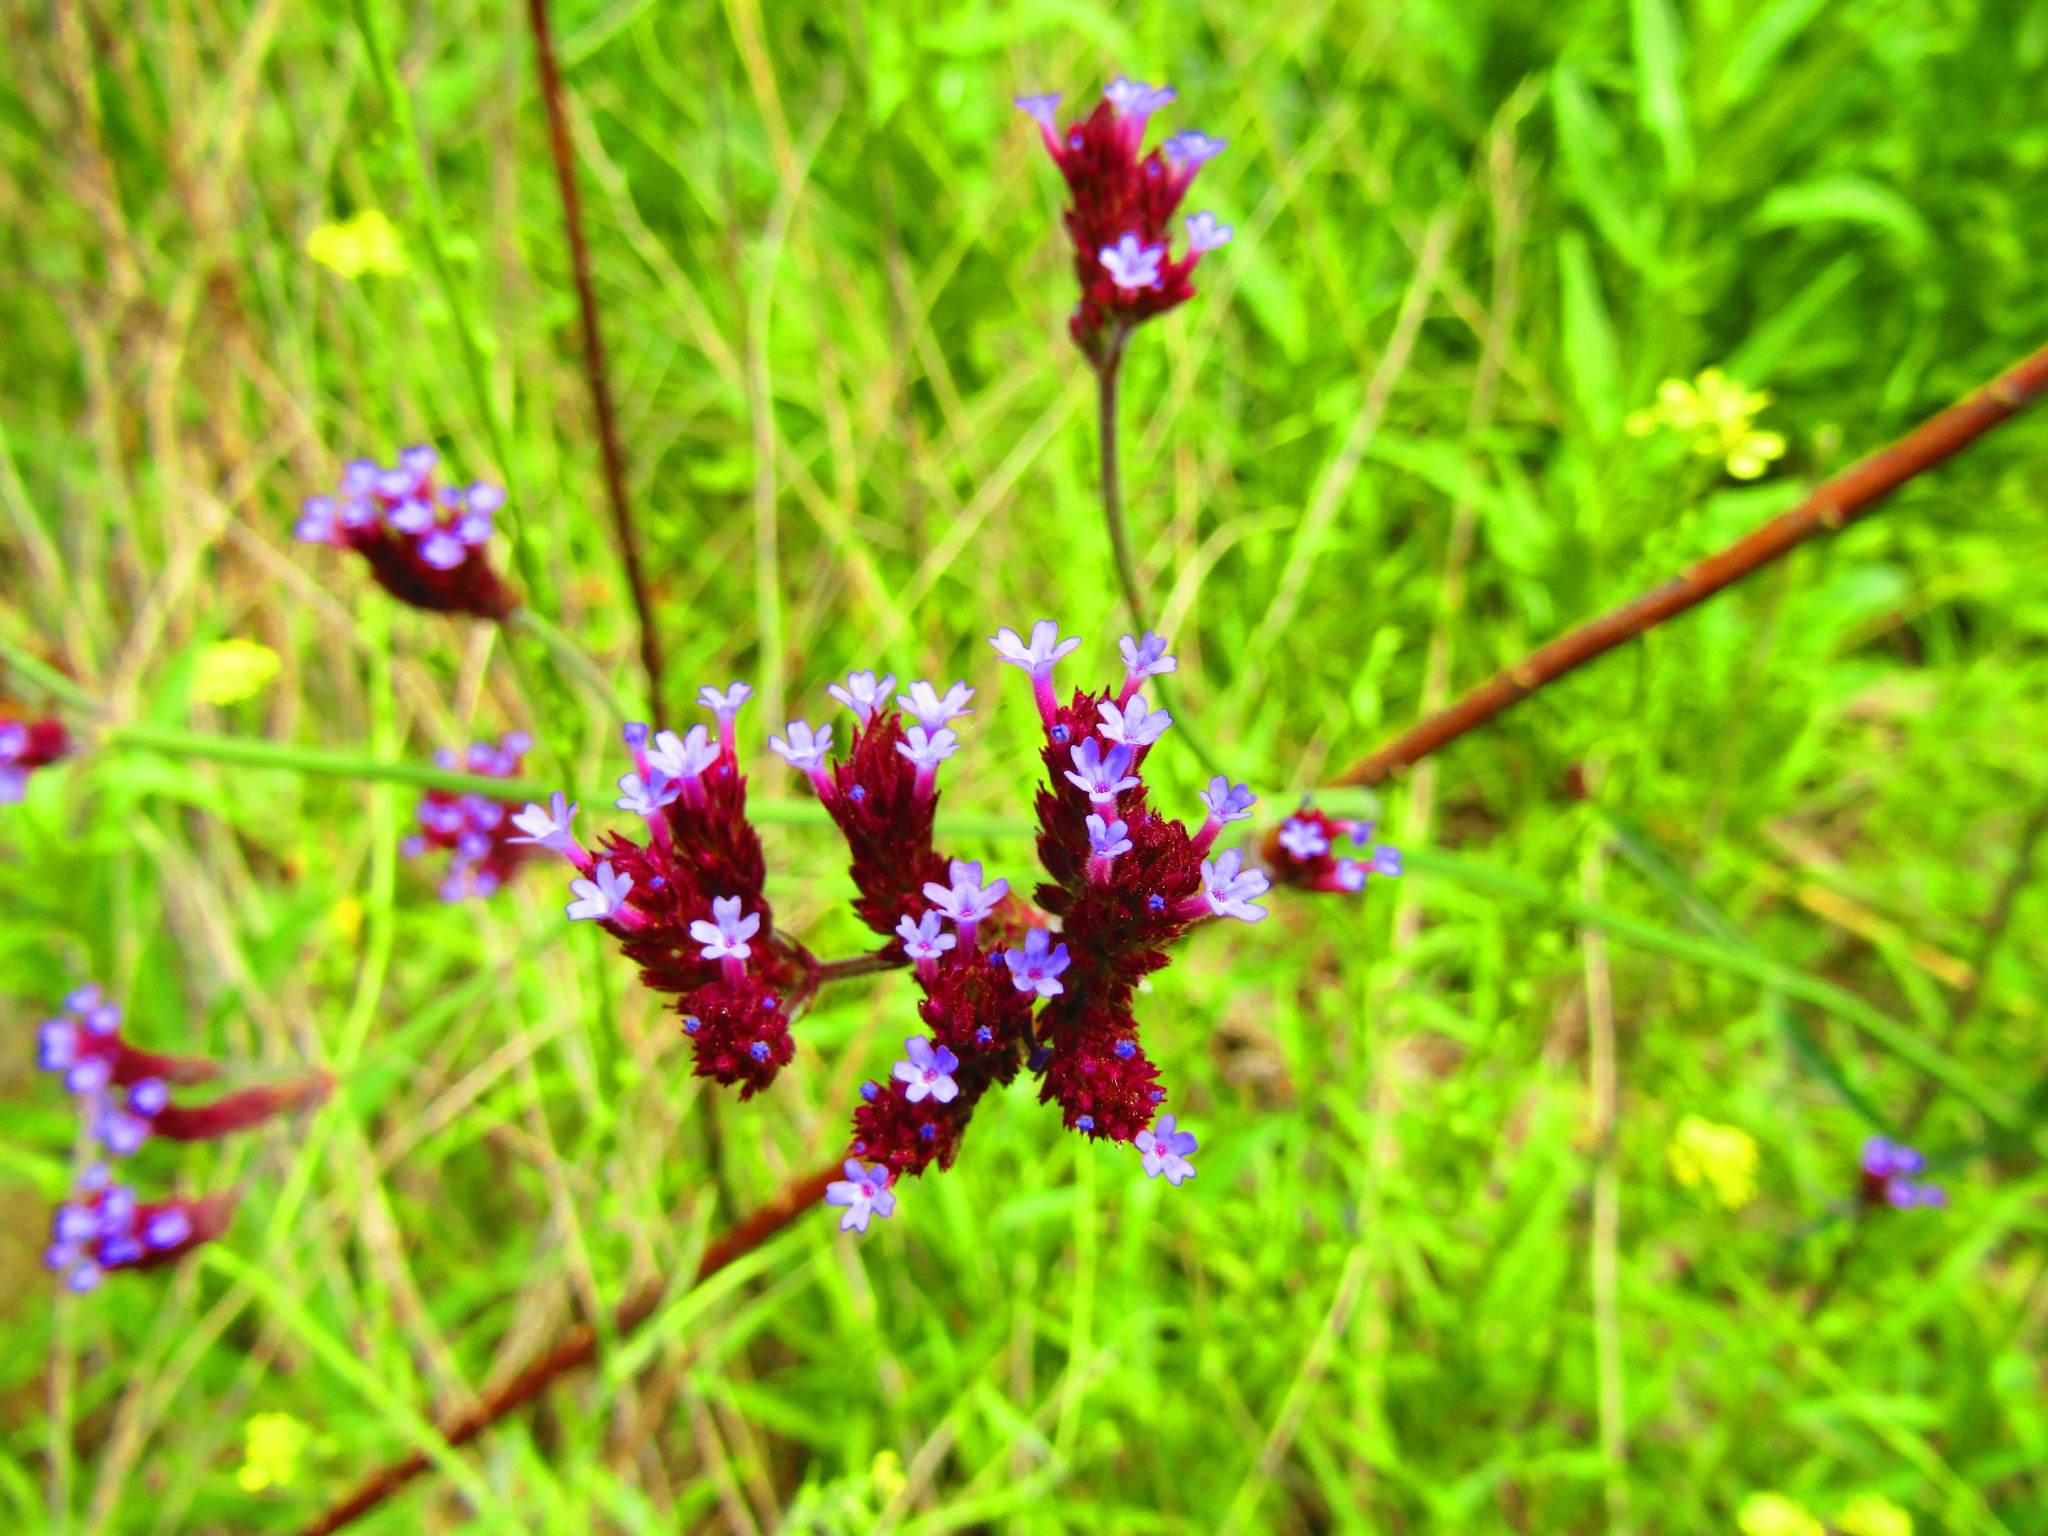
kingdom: Plantae
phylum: Tracheophyta
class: Magnoliopsida
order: Lamiales
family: Verbenaceae
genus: Verbena
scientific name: Verbena bonariensis
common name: Purpletop vervain
